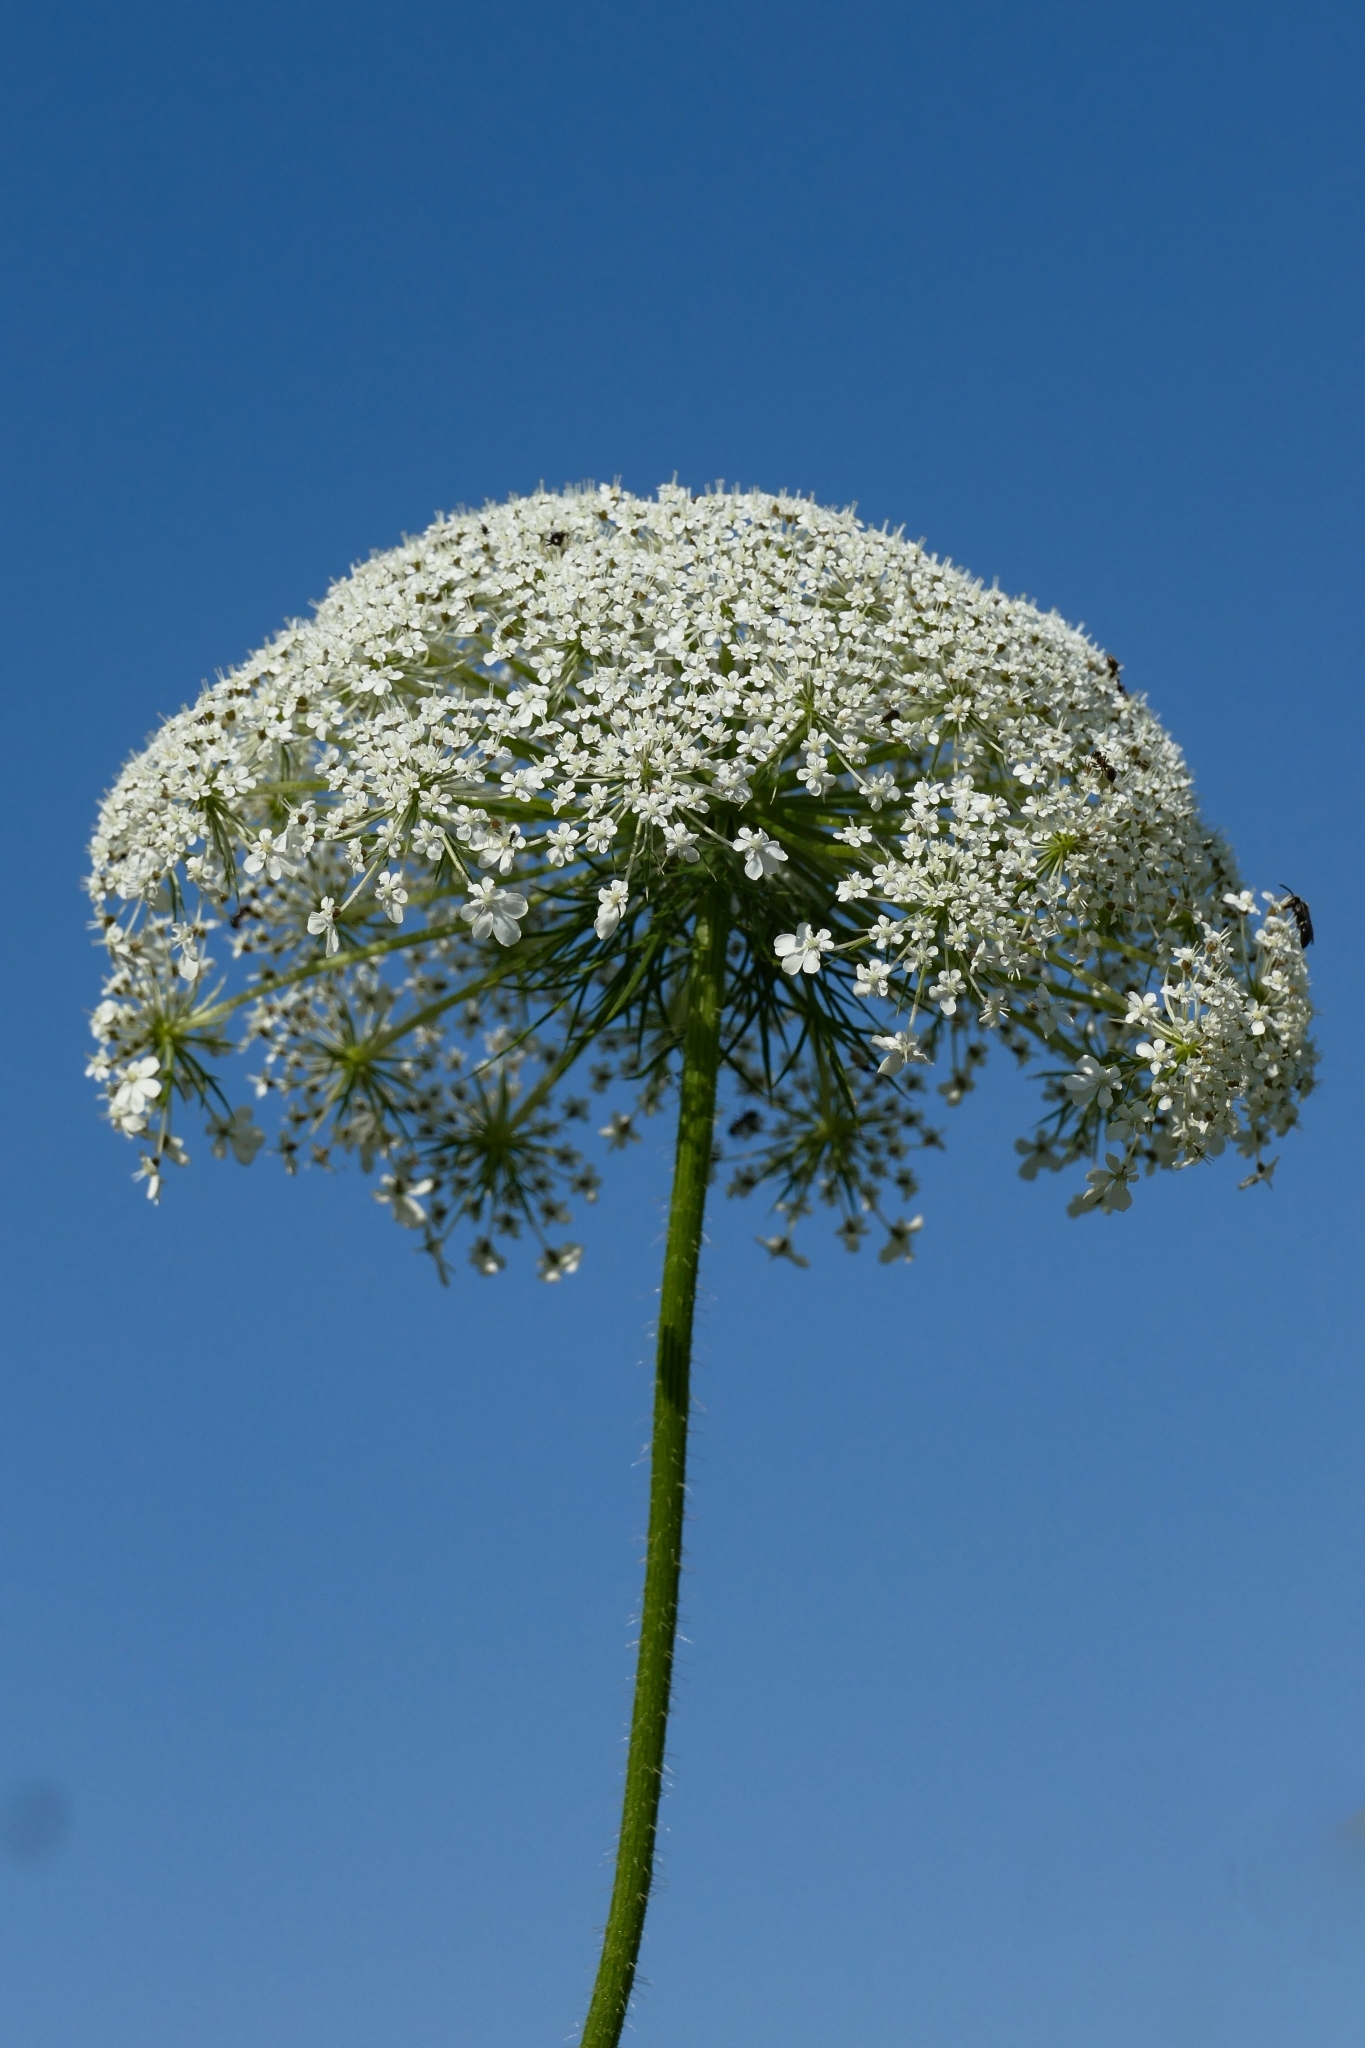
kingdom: Plantae
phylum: Tracheophyta
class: Magnoliopsida
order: Apiales
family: Apiaceae
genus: Daucus
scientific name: Daucus carota
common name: Wild carrot
